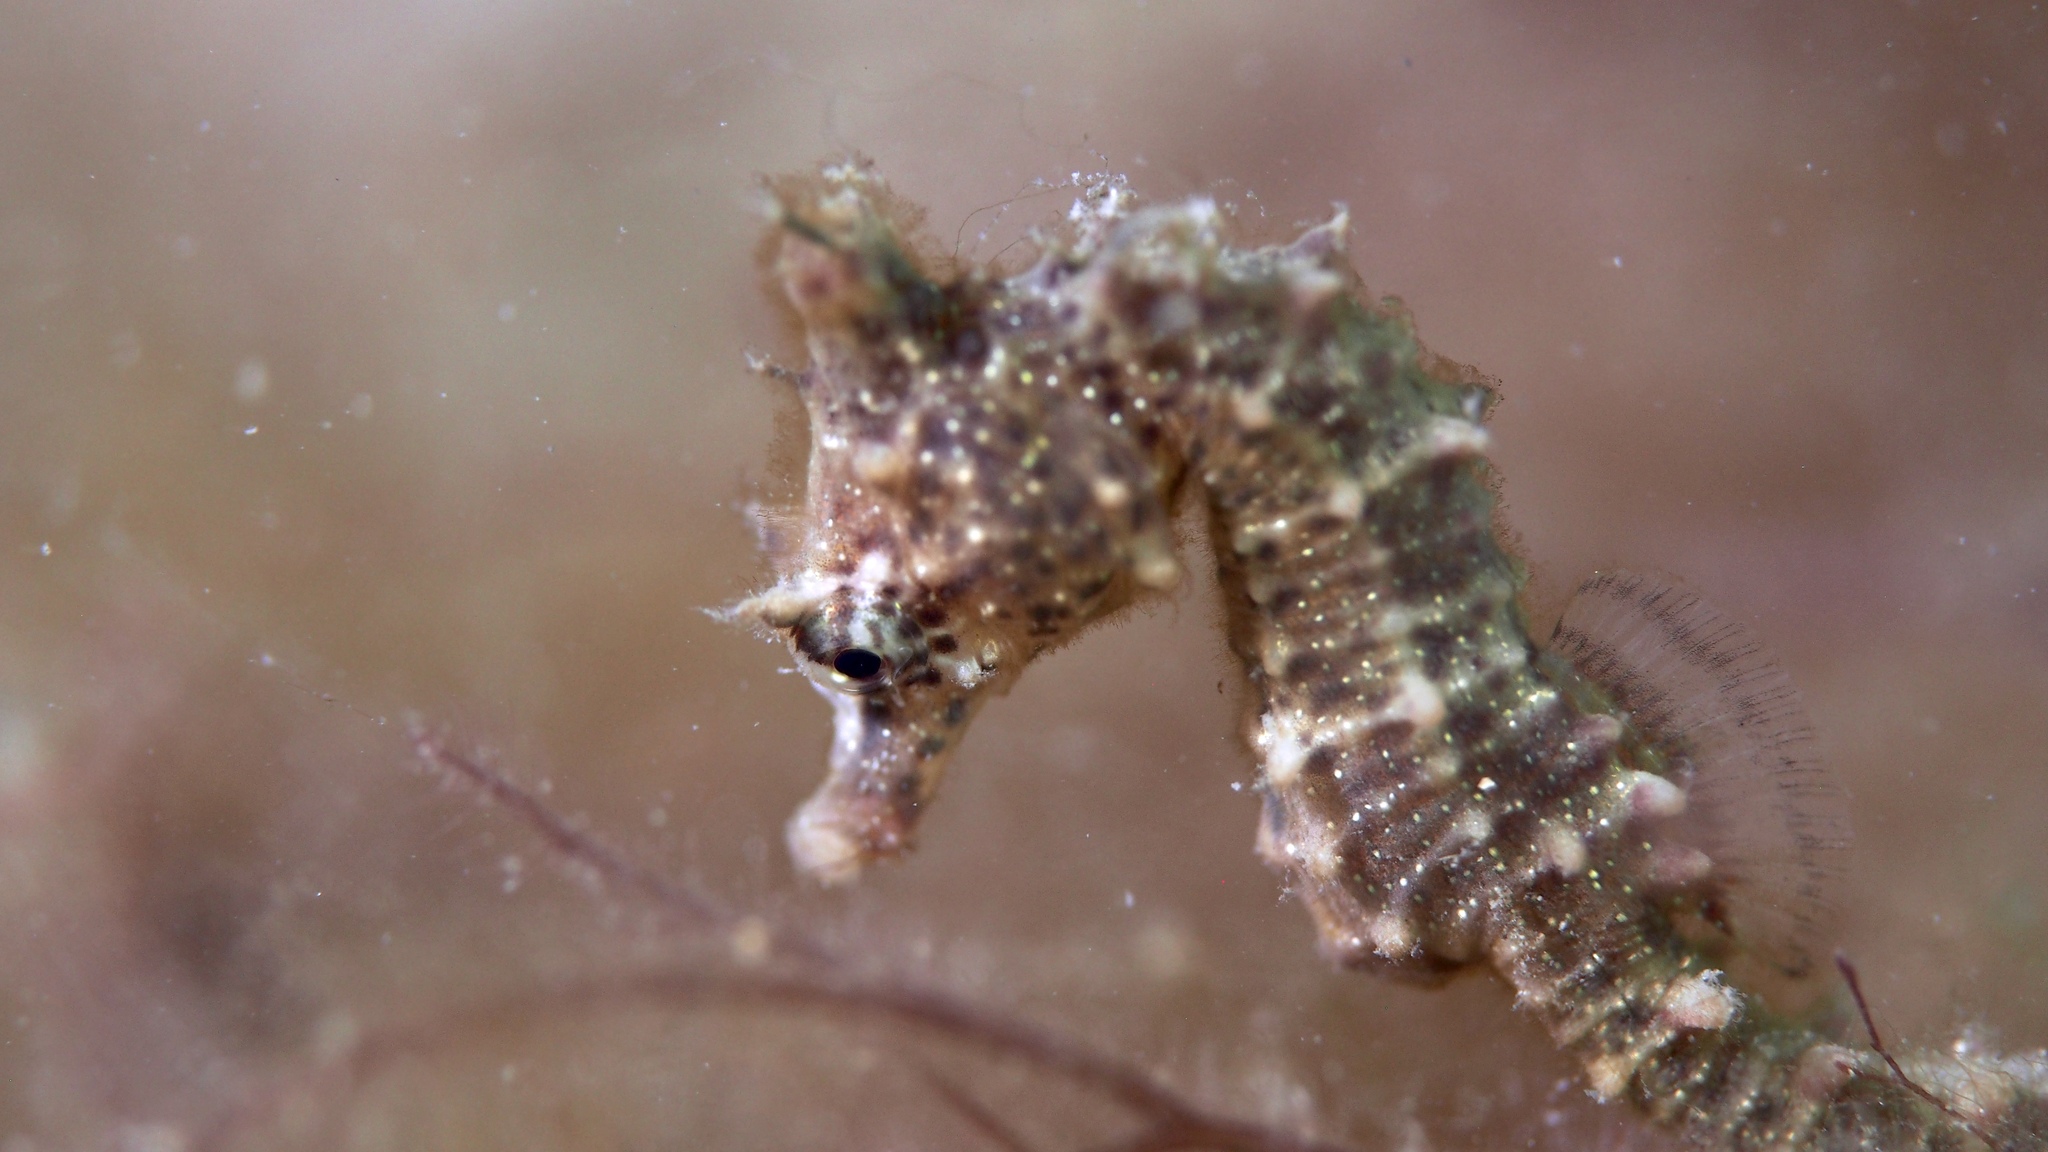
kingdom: Animalia
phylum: Chordata
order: Syngnathiformes
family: Syngnathidae
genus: Hippocampus
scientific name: Hippocampus breviceps
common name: Knobby seahorse
